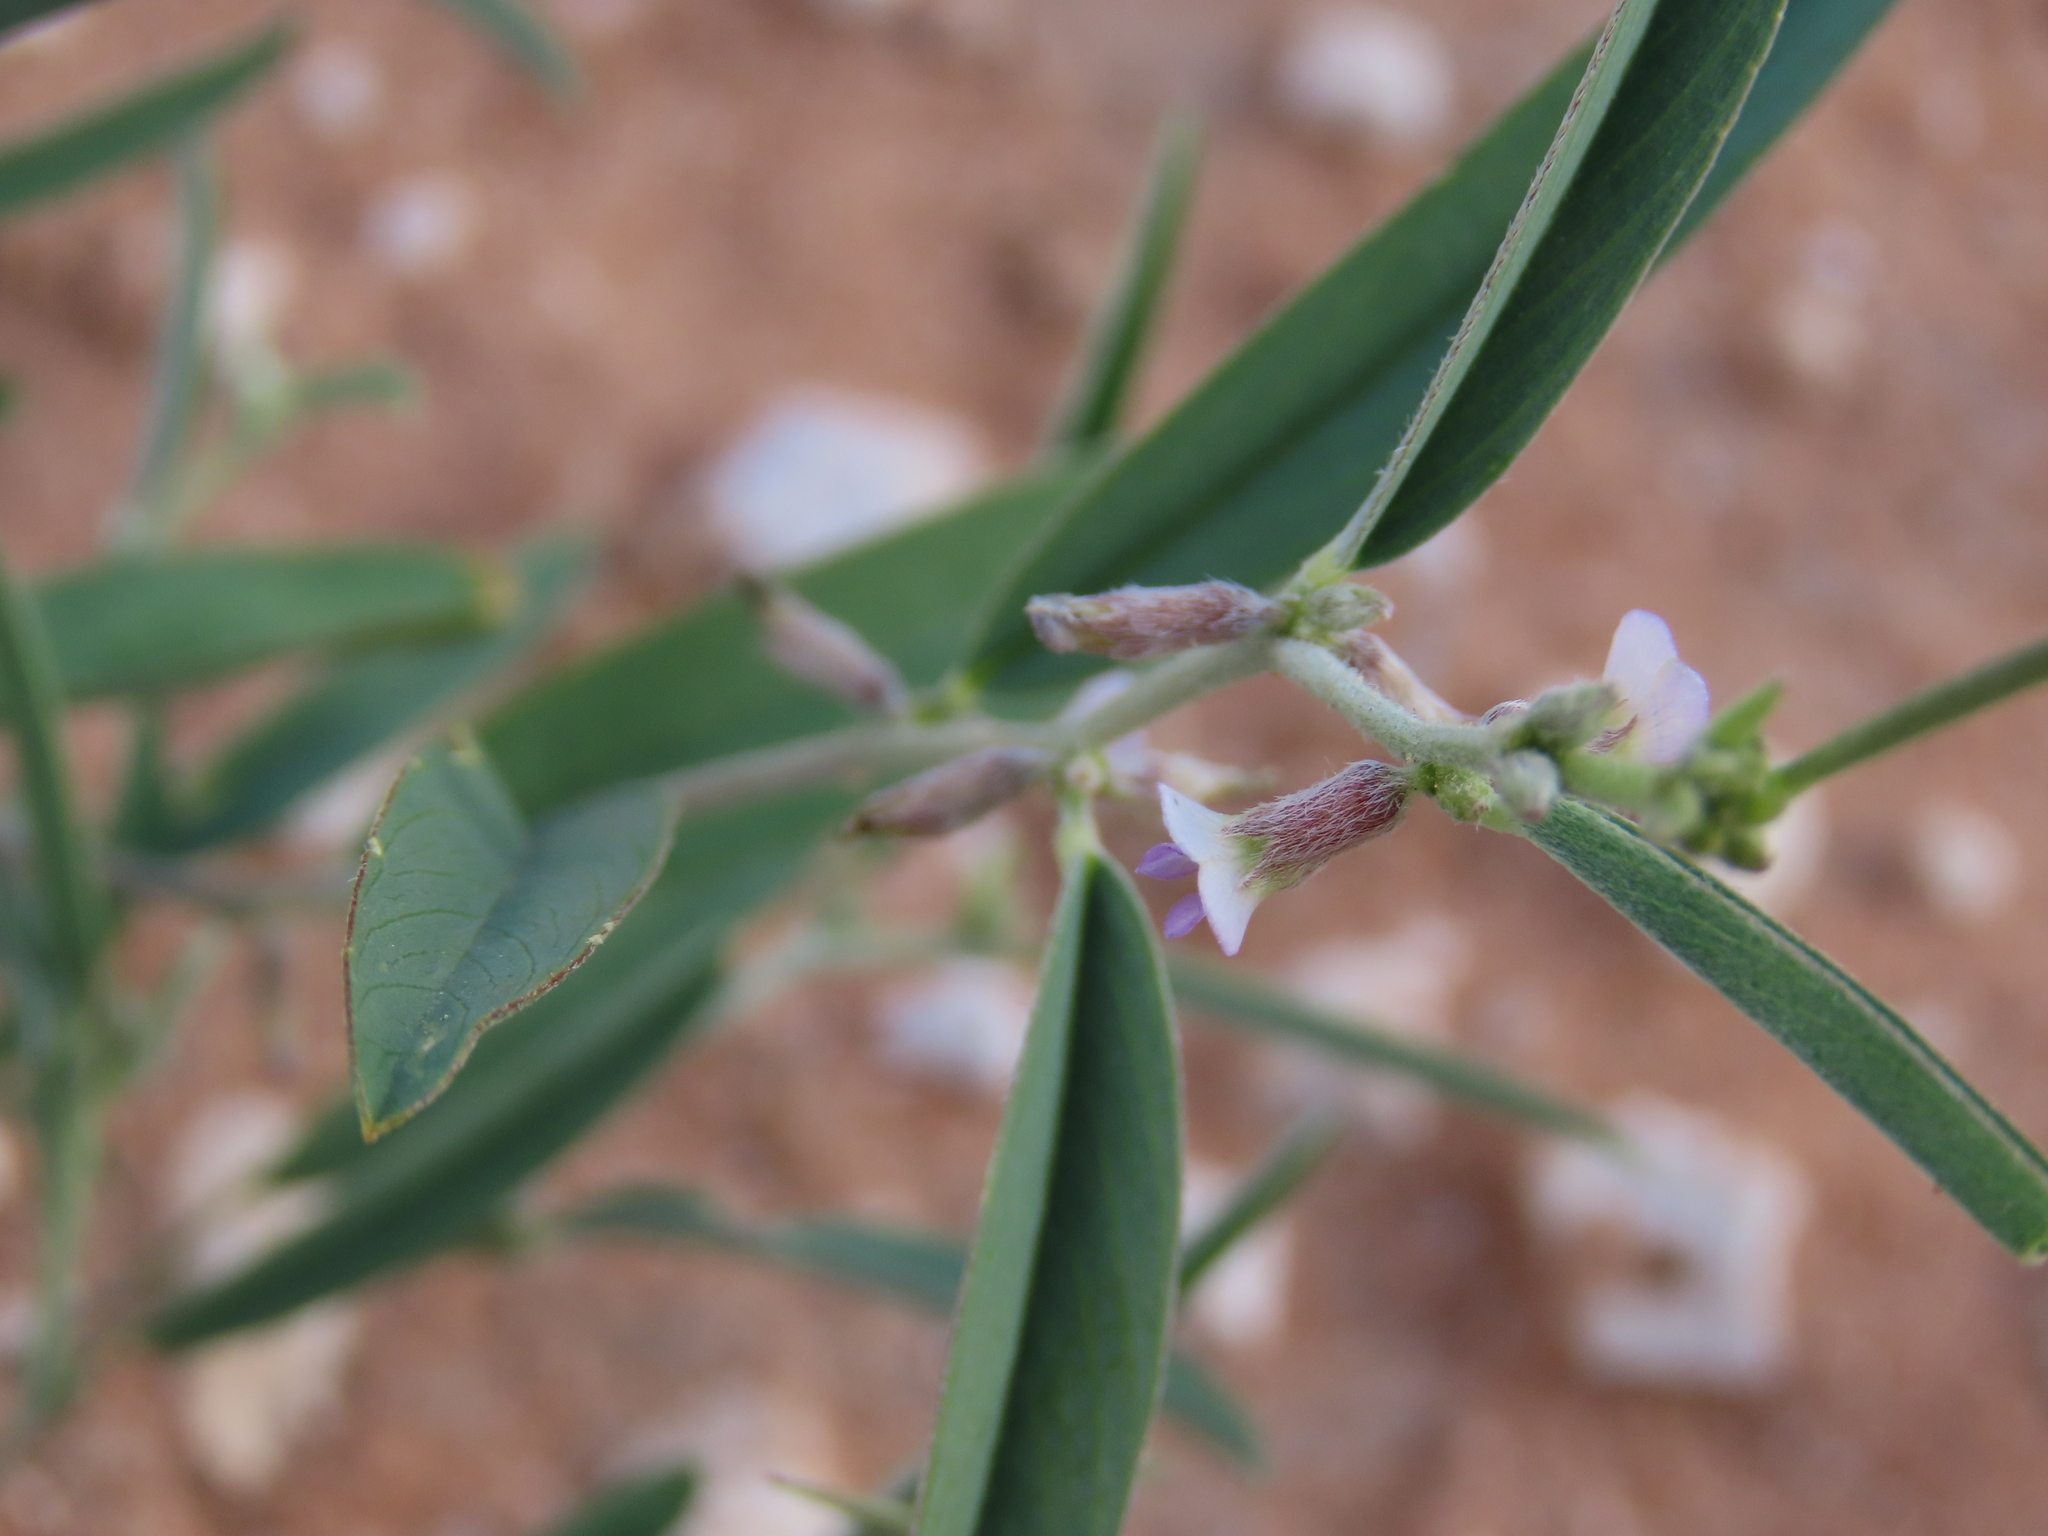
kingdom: Plantae
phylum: Tracheophyta
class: Magnoliopsida
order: Fabales
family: Fabaceae
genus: Ptycholobium
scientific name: Ptycholobium biflorum
